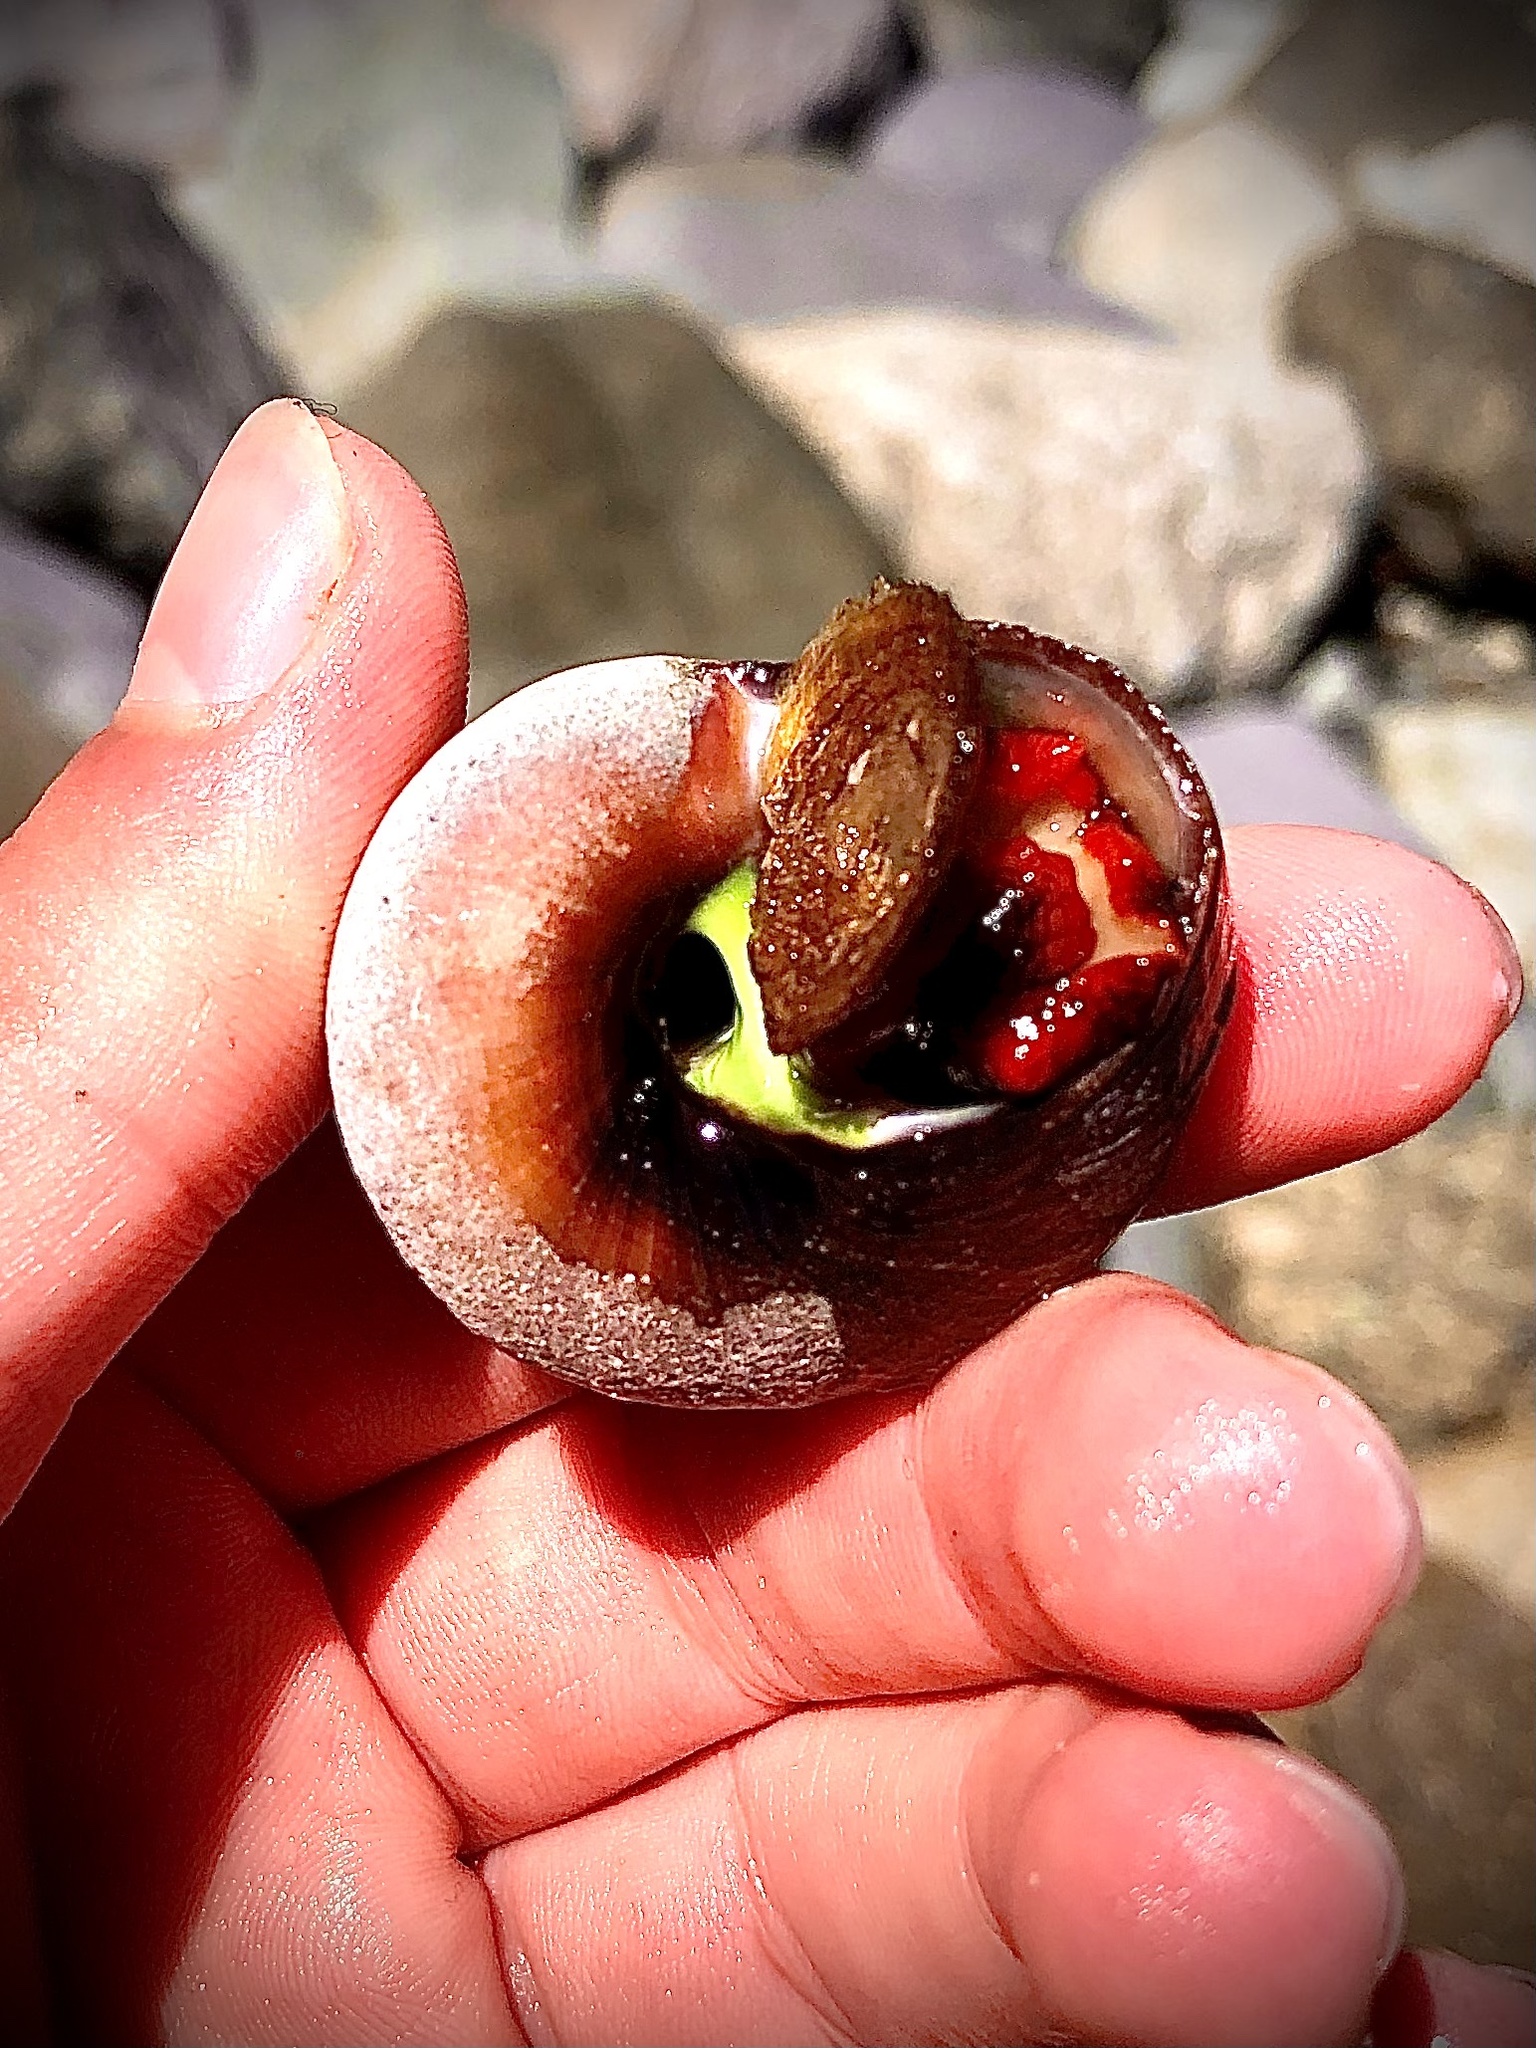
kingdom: Animalia
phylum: Mollusca
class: Gastropoda
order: Trochida
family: Tegulidae
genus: Norrisia
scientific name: Norrisia norrisii
